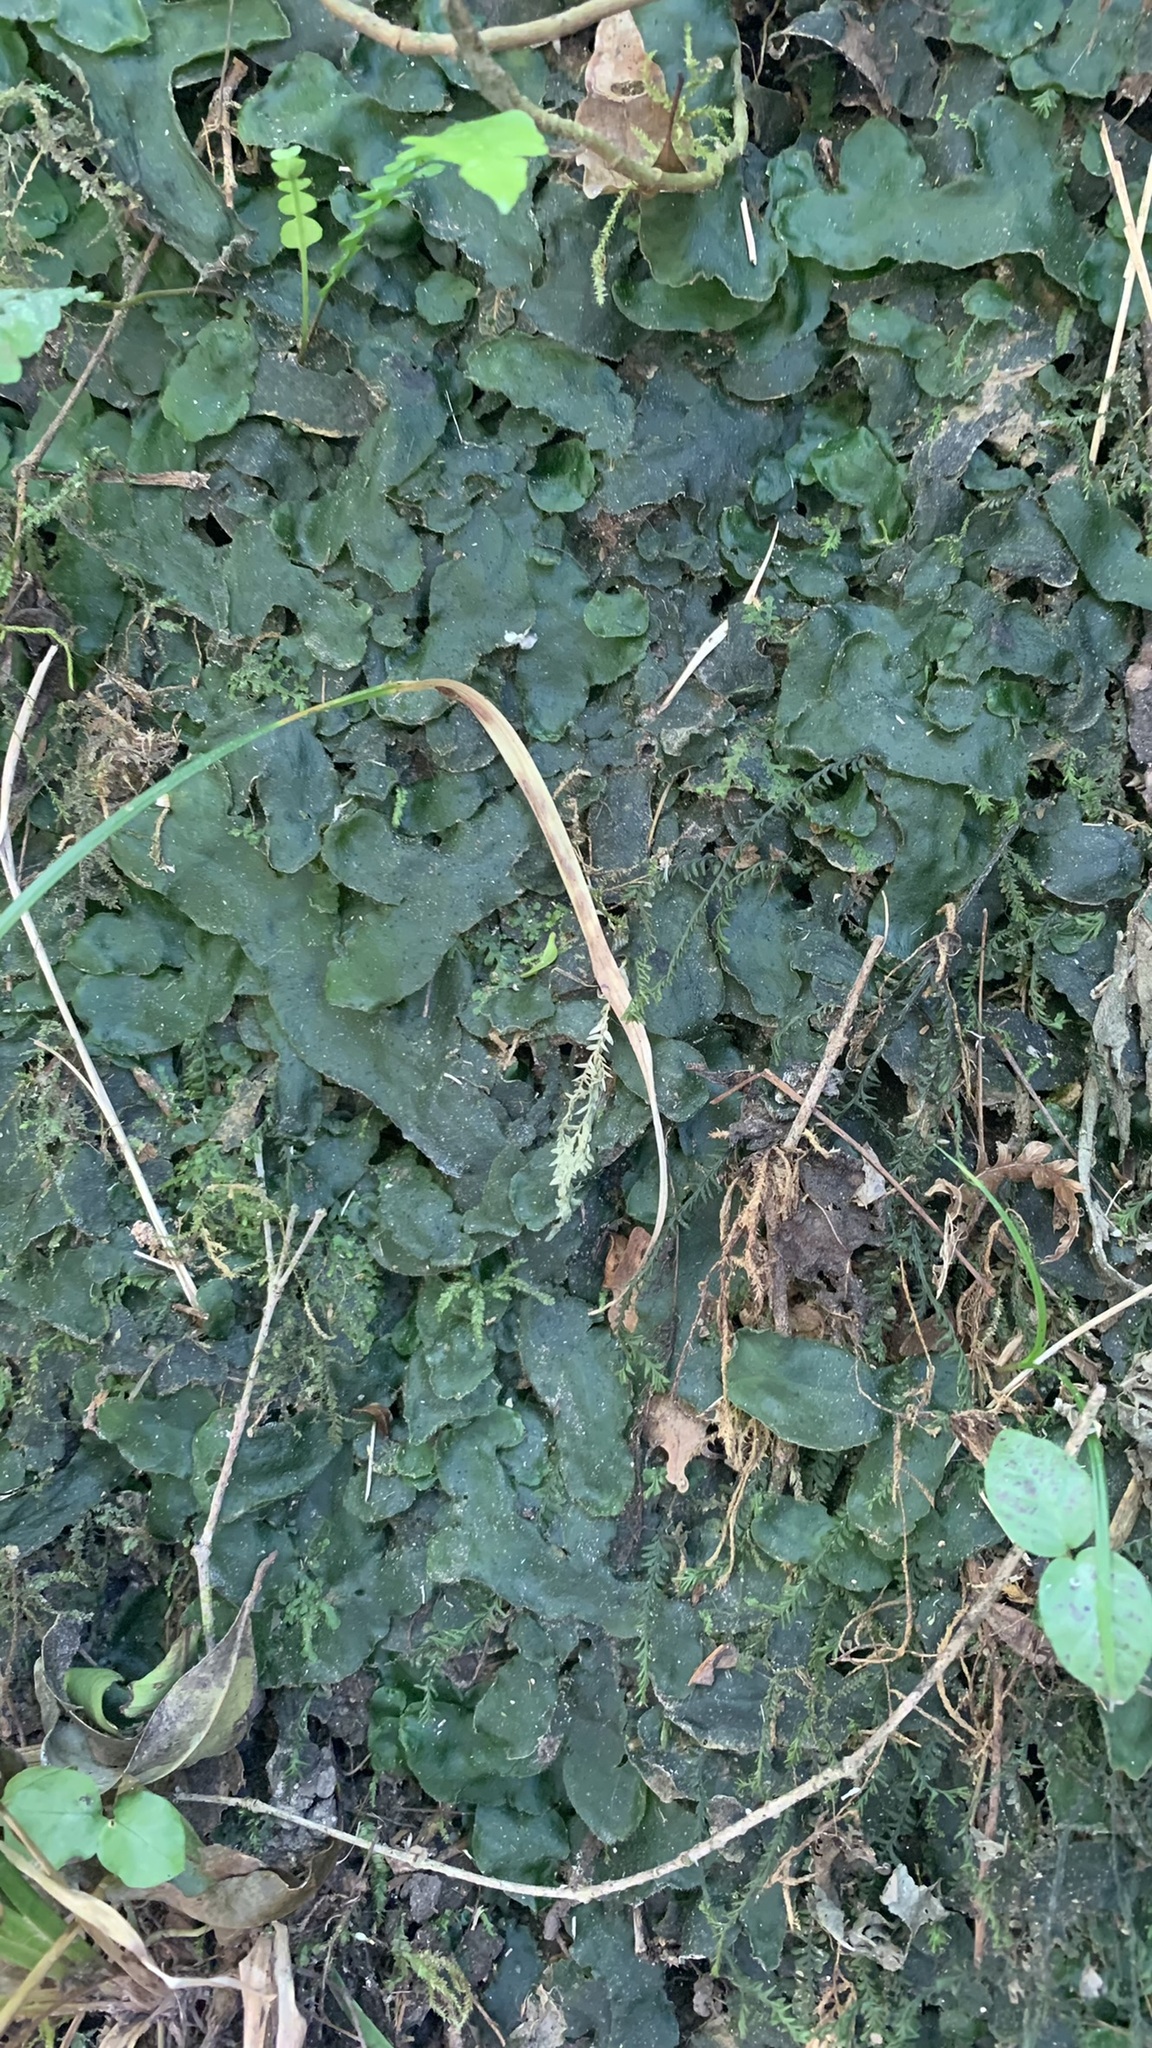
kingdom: Plantae
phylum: Marchantiophyta
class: Marchantiopsida
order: Marchantiales
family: Dumortieraceae
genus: Dumortiera
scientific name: Dumortiera hirsuta
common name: Dumortier's liverwort
